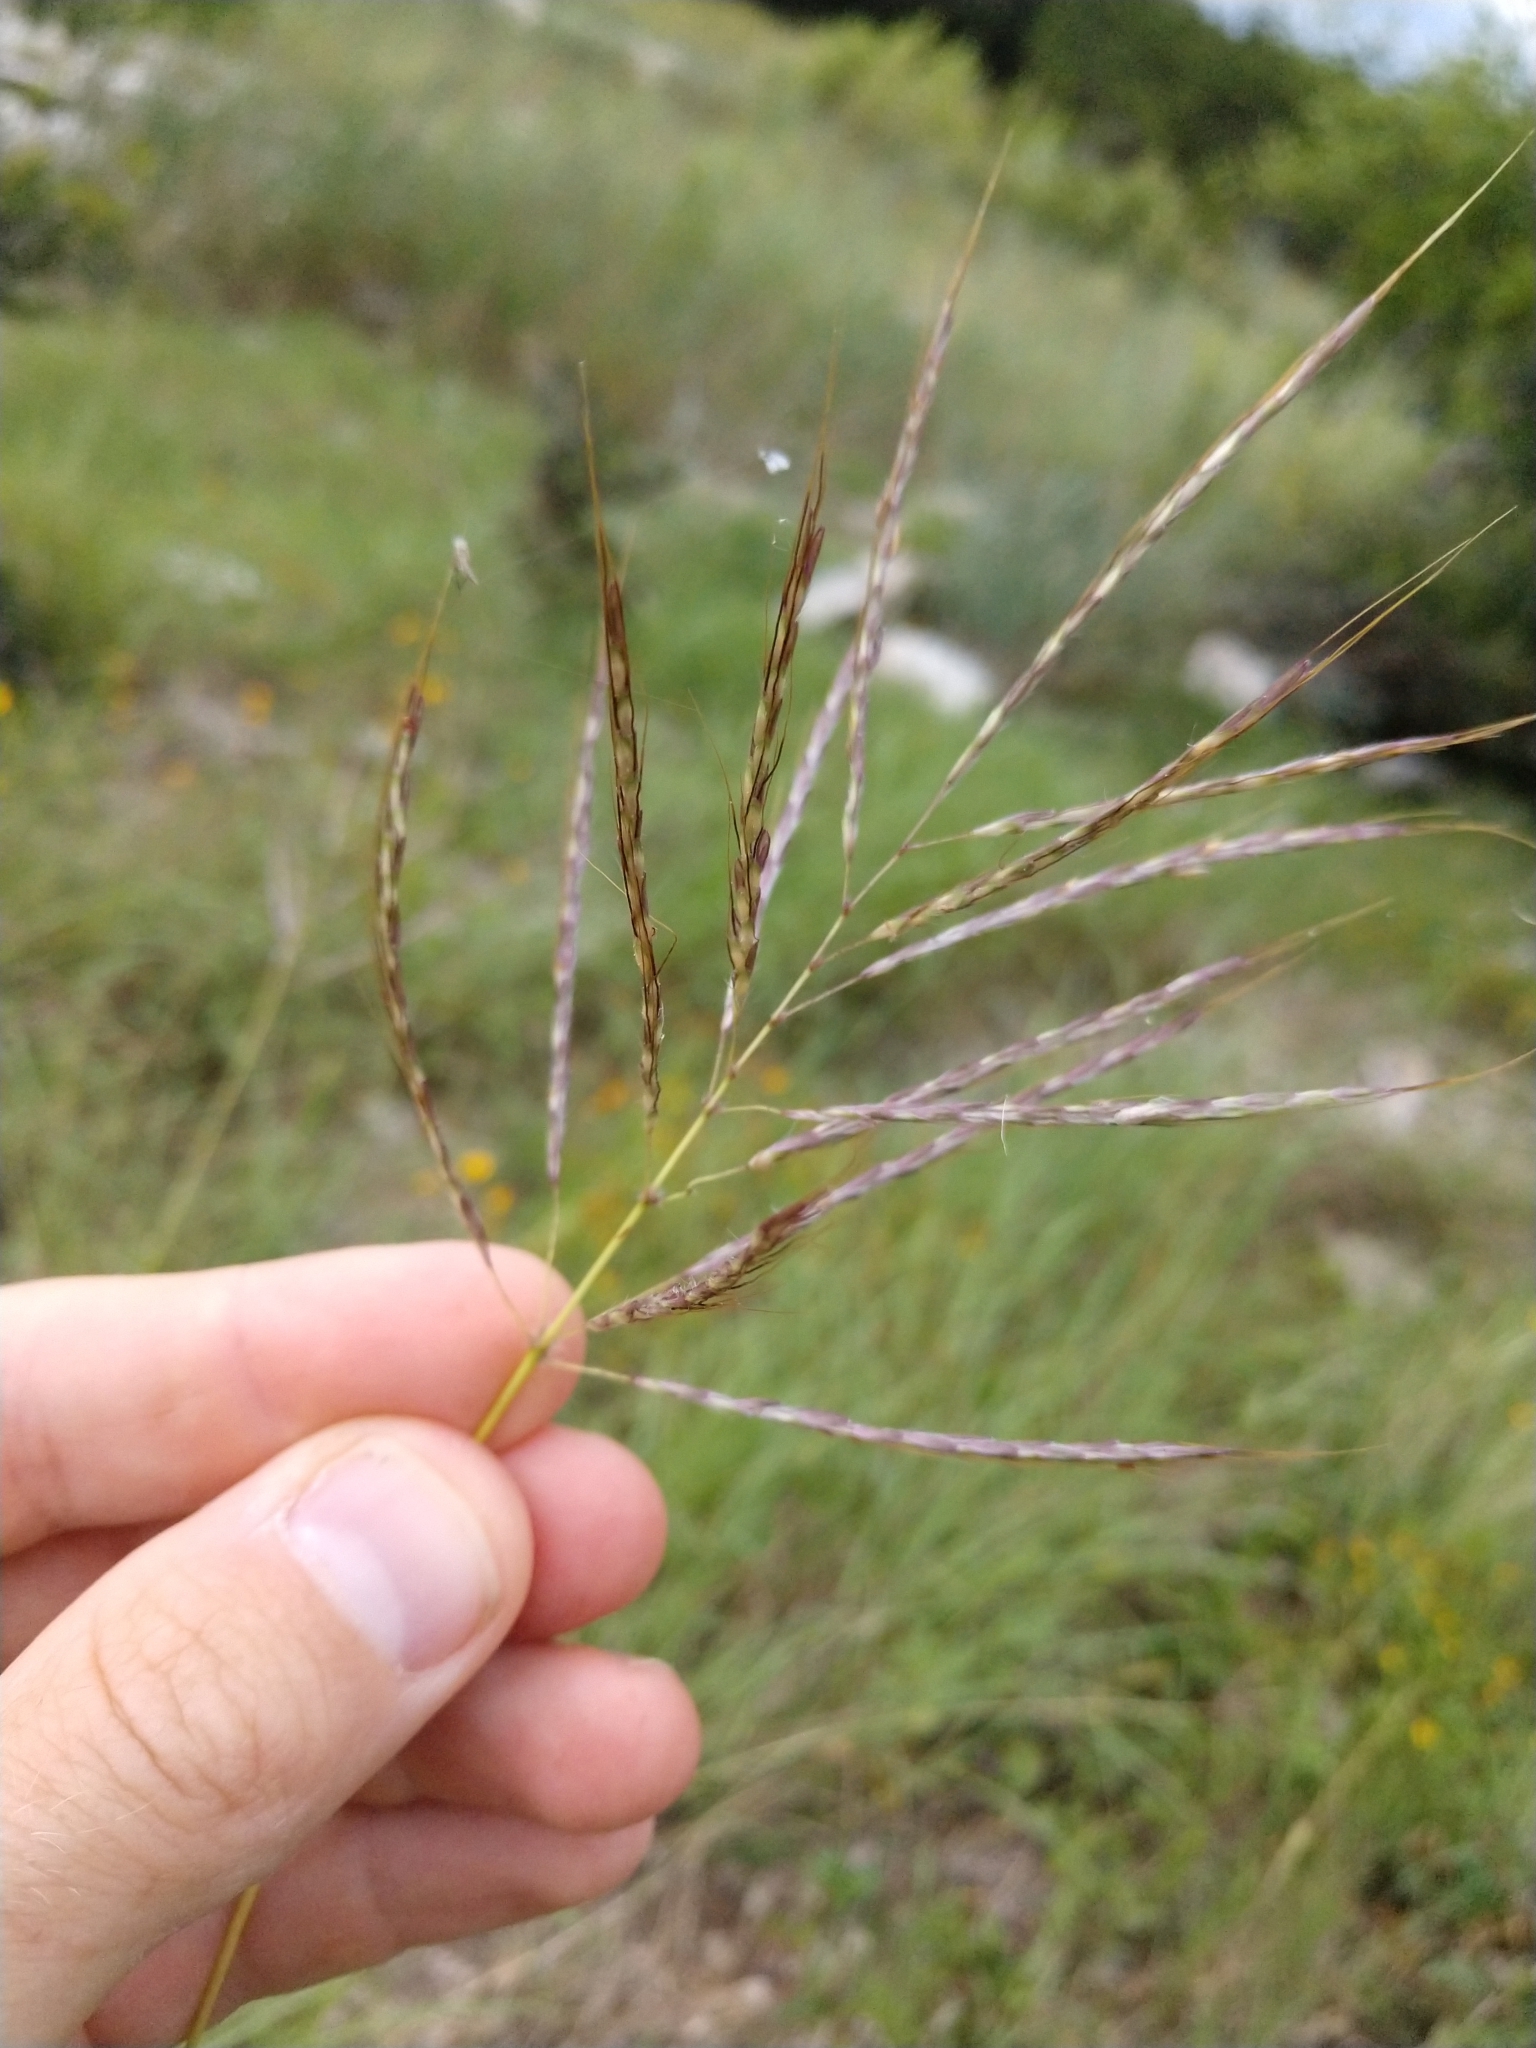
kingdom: Plantae
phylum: Tracheophyta
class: Liliopsida
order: Poales
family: Poaceae
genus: Bothriochloa
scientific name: Bothriochloa bladhii
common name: Caucasian bluestem
